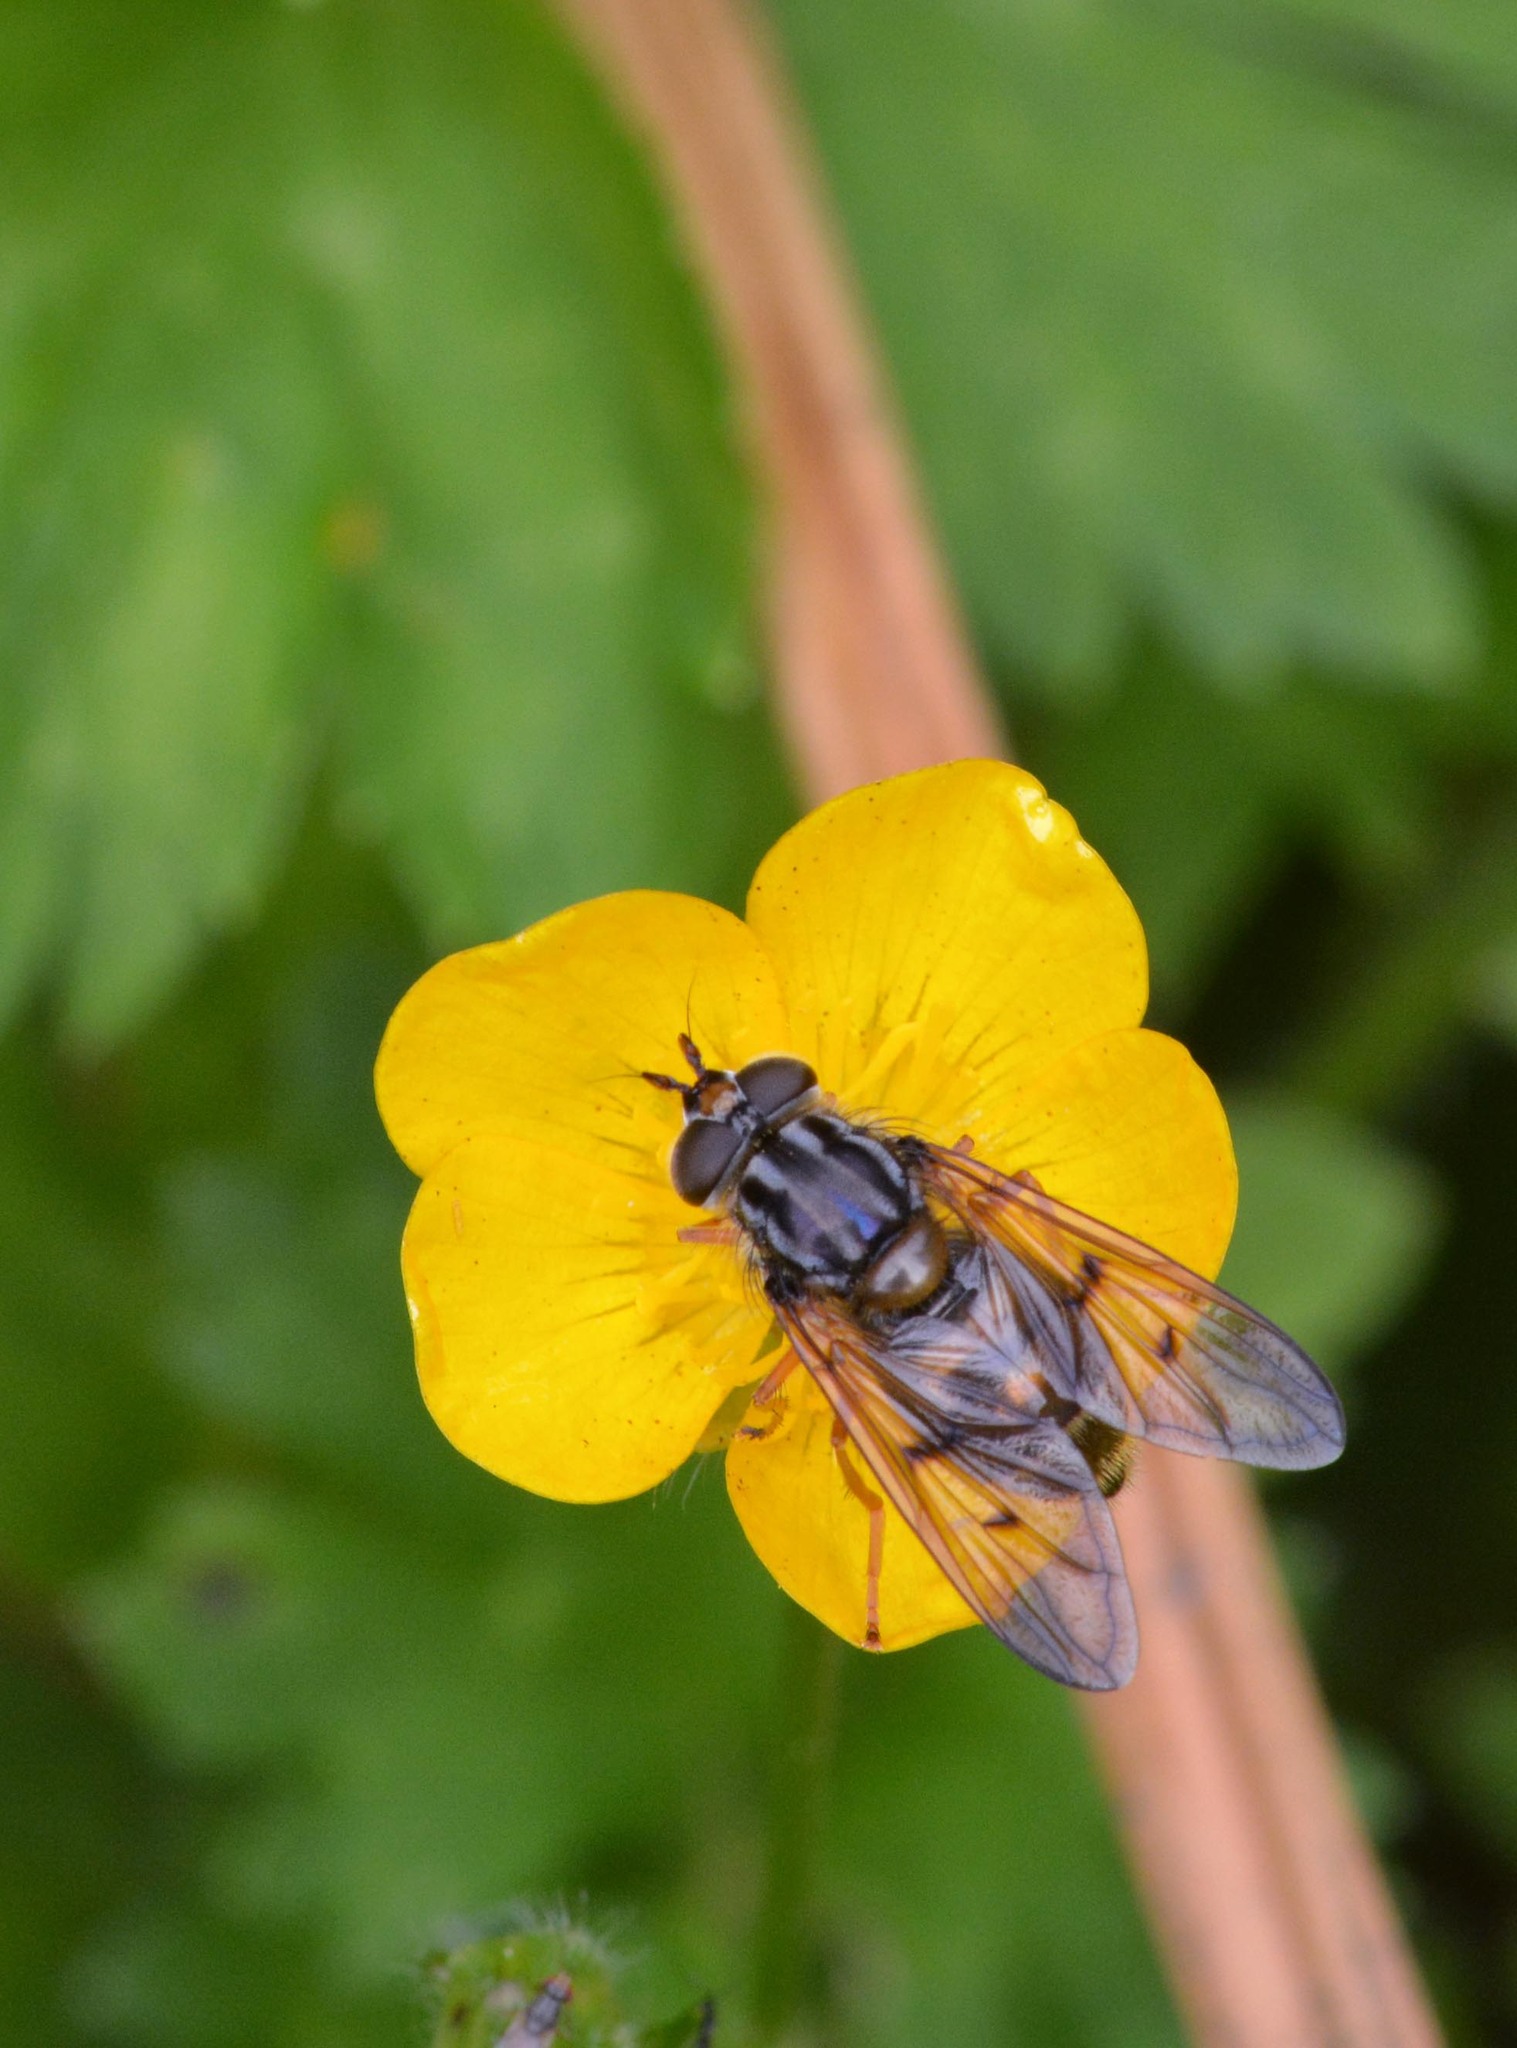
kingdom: Animalia
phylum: Arthropoda
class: Insecta
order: Diptera
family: Syrphidae
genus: Ferdinandea
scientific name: Ferdinandea cuprea
